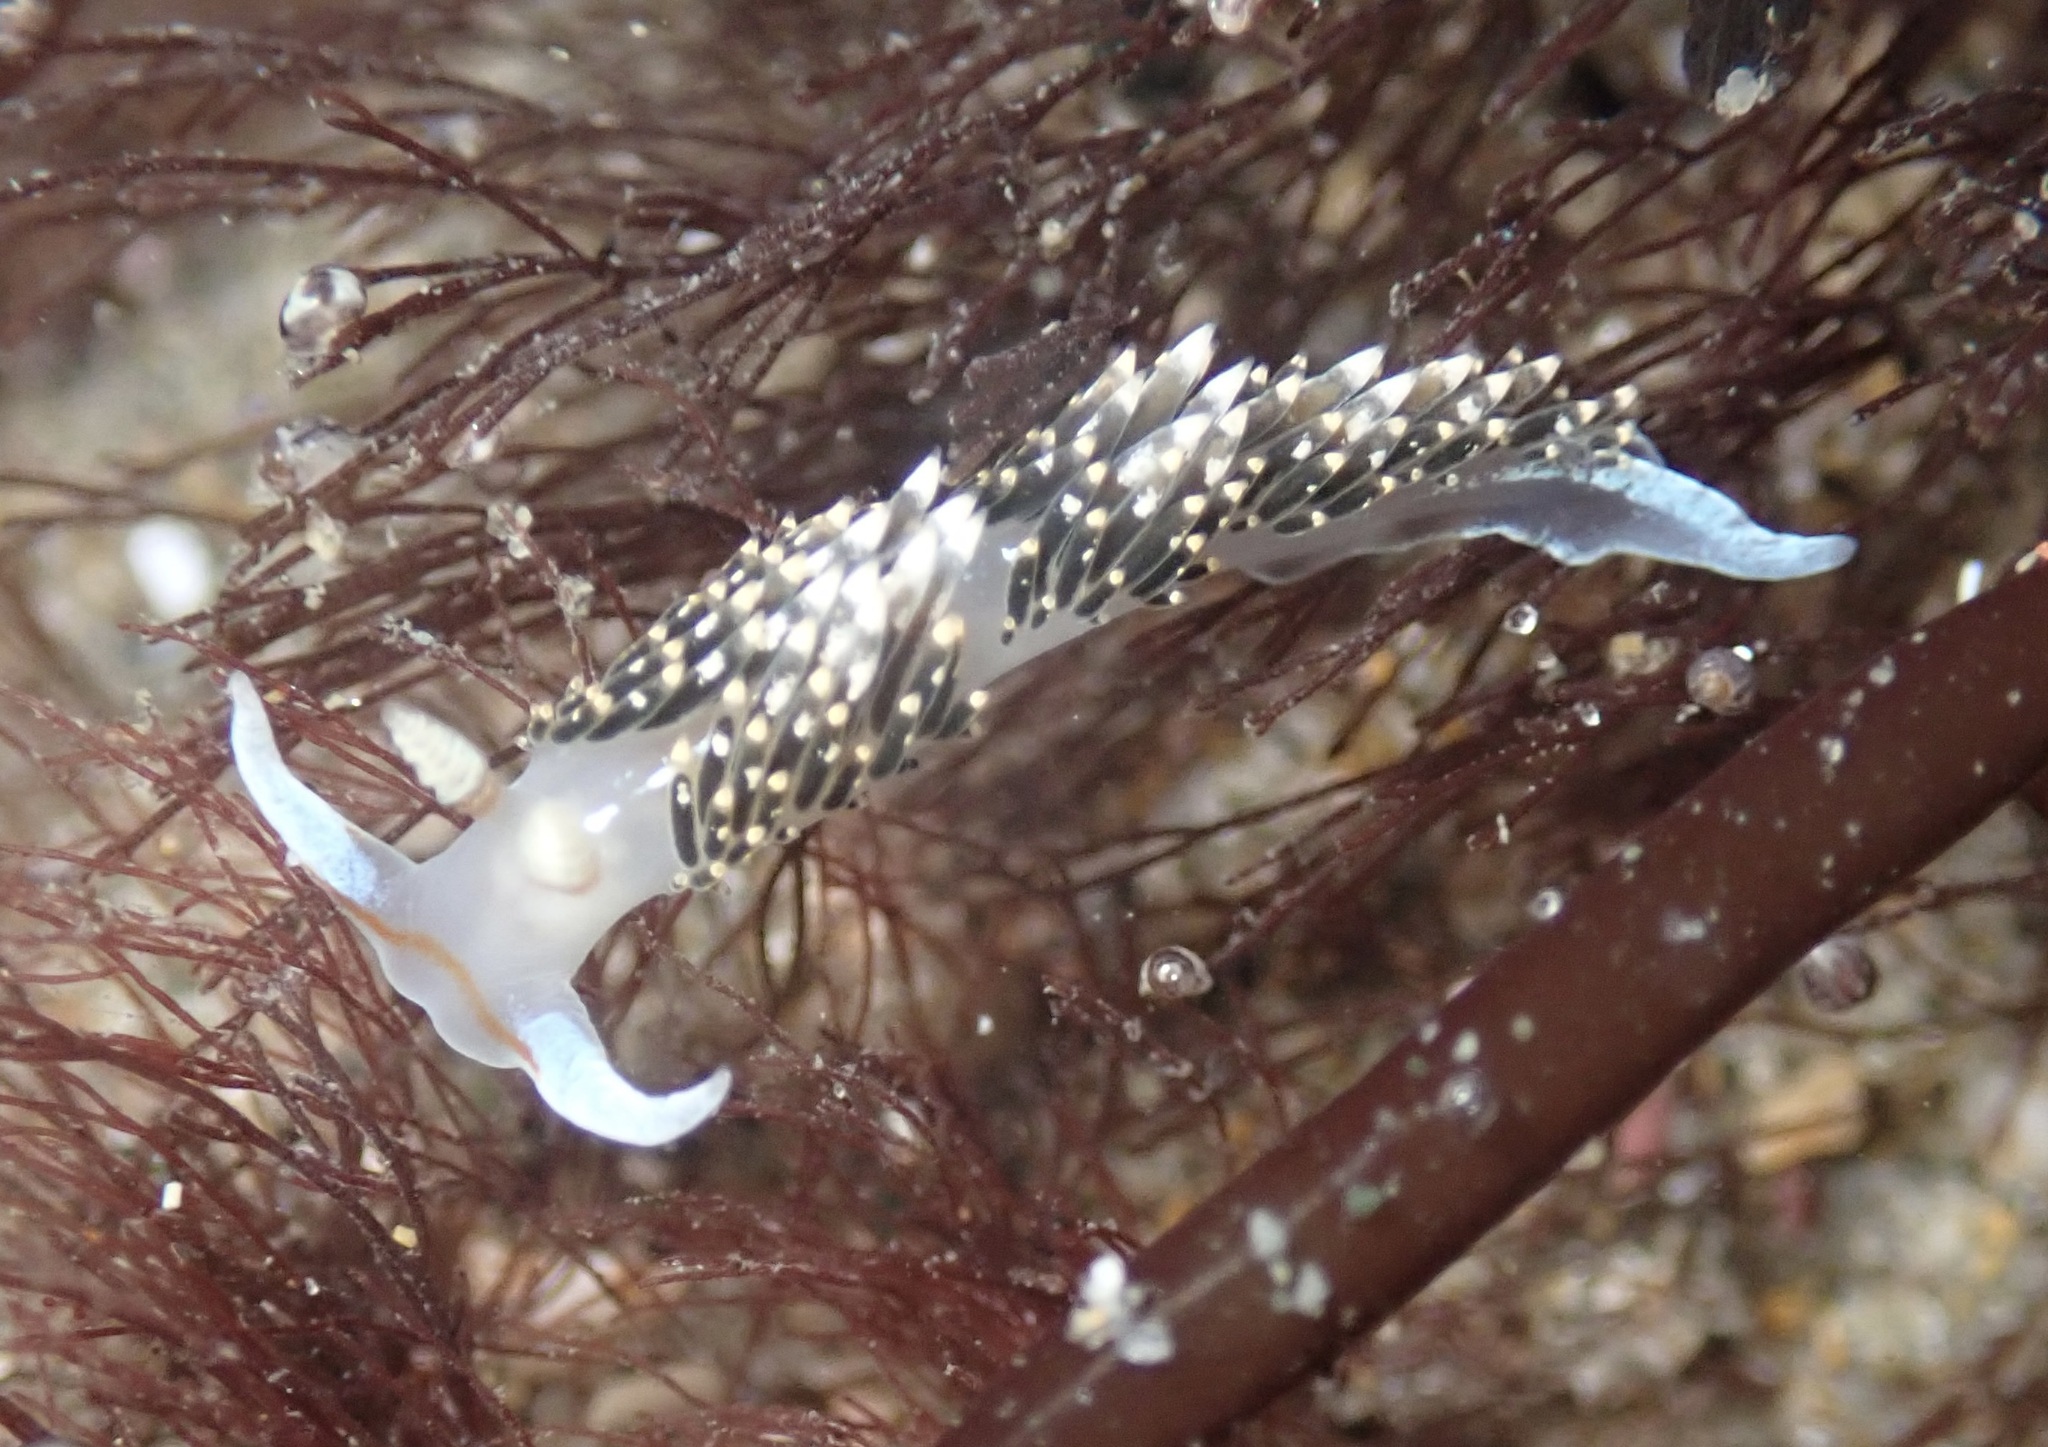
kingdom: Animalia
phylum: Mollusca
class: Gastropoda
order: Nudibranchia
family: Facelinidae
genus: Phidiana
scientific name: Phidiana hiltoni
